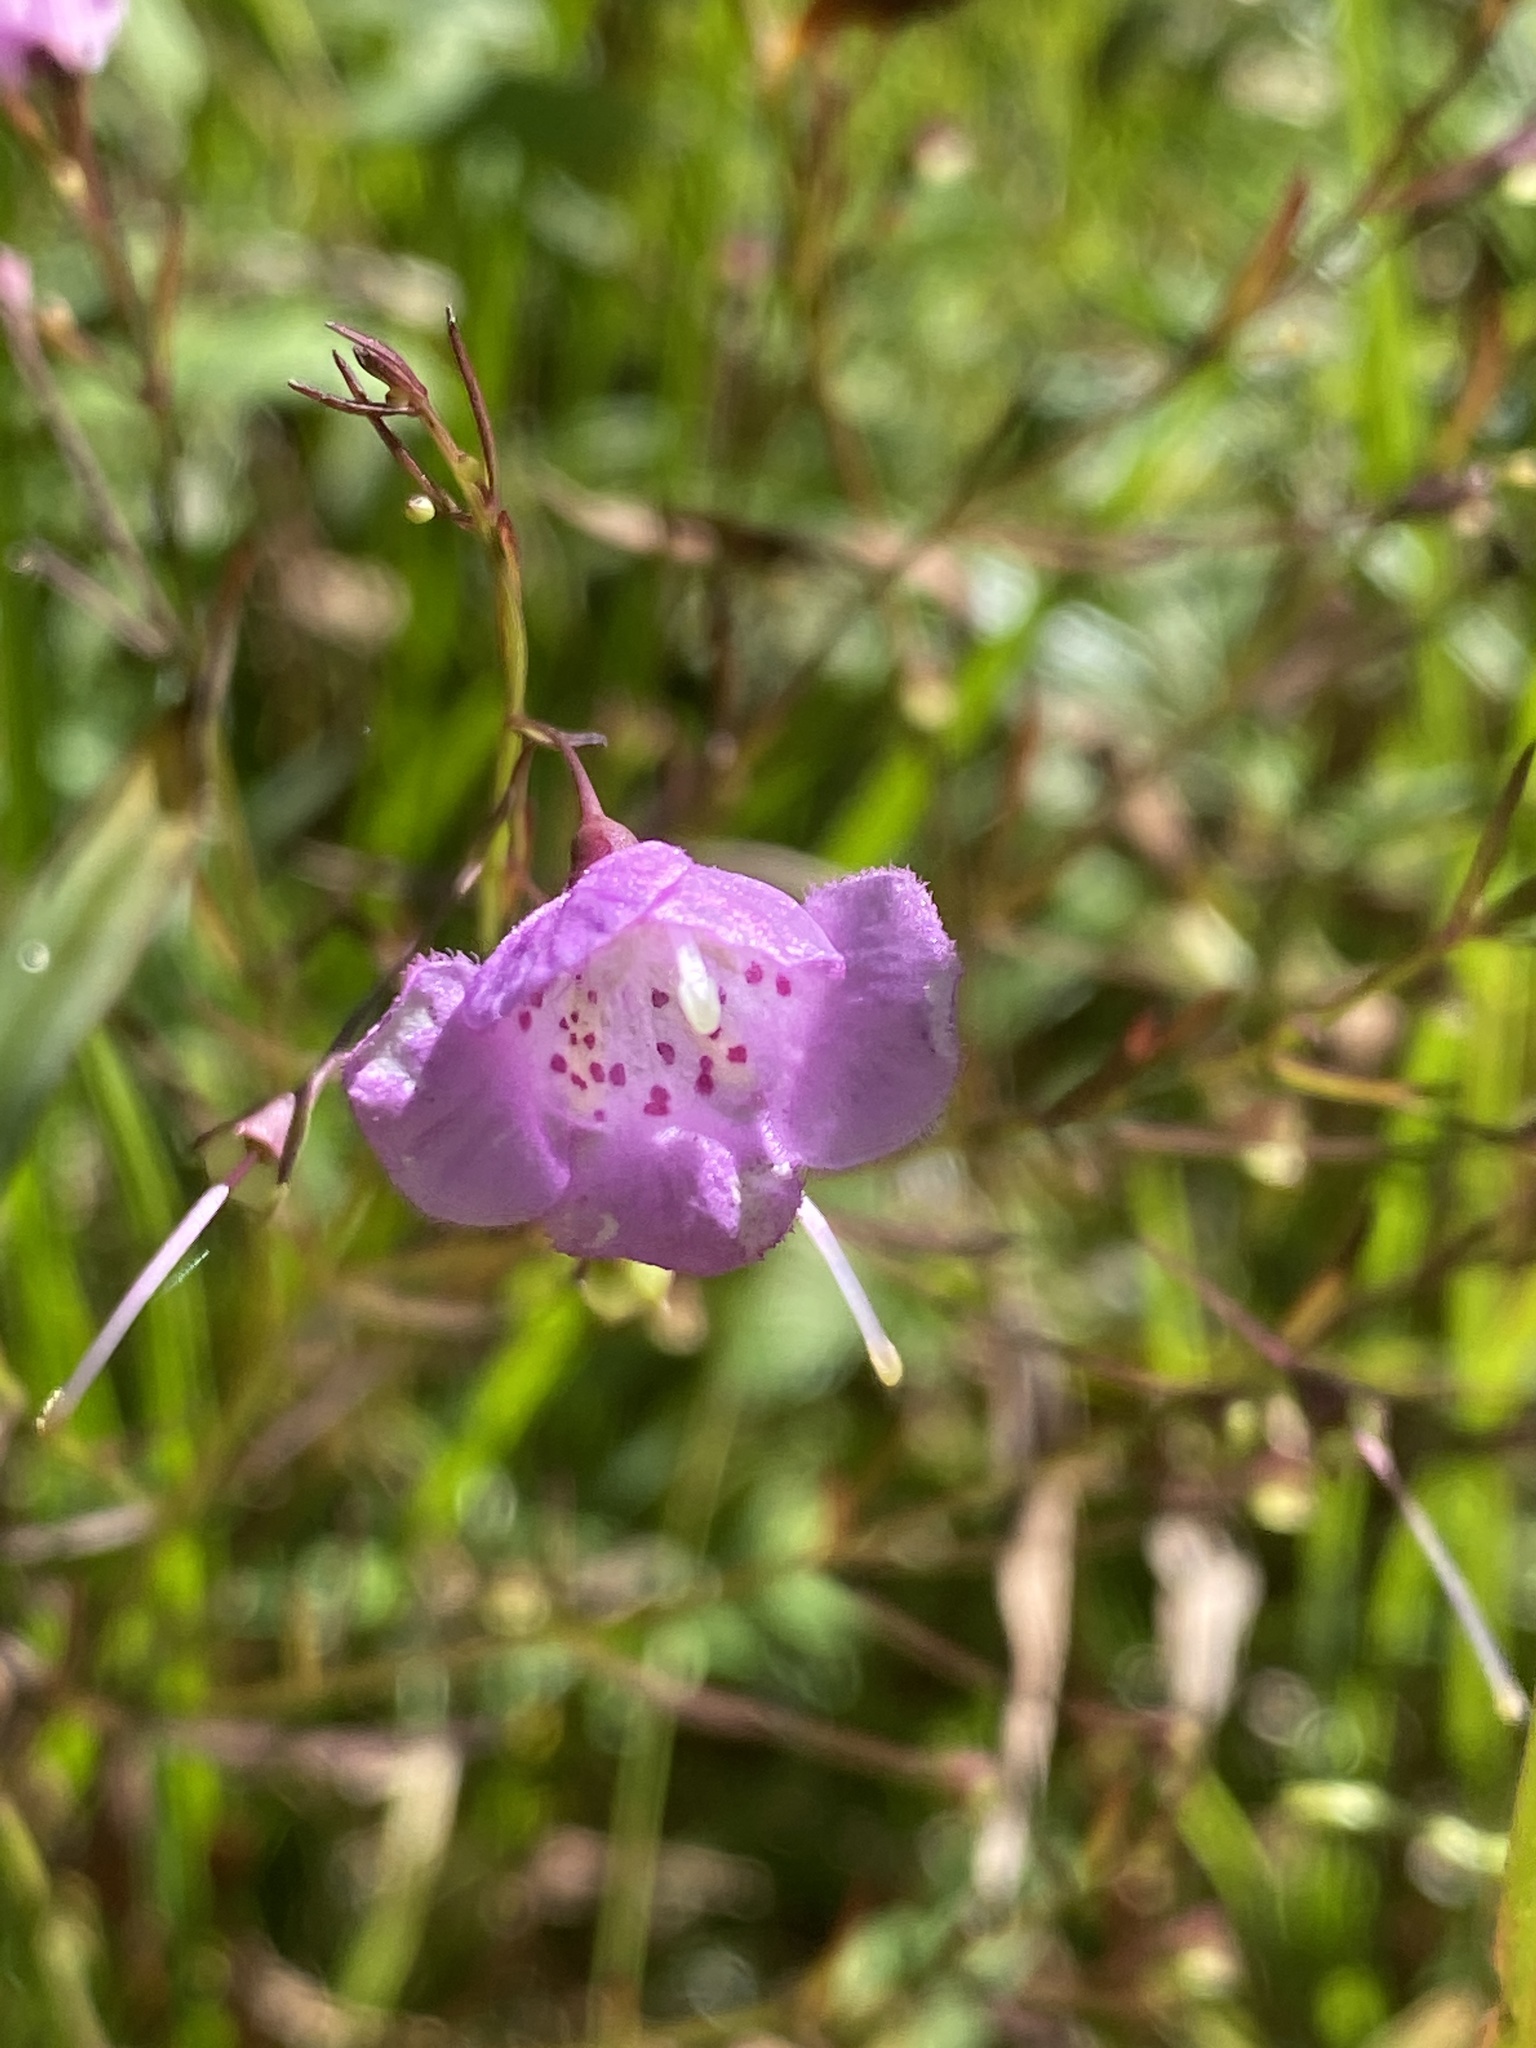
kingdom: Plantae
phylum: Tracheophyta
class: Magnoliopsida
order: Lamiales
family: Orobanchaceae
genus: Agalinis
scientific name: Agalinis tenuifolia
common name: Slender agalinis
